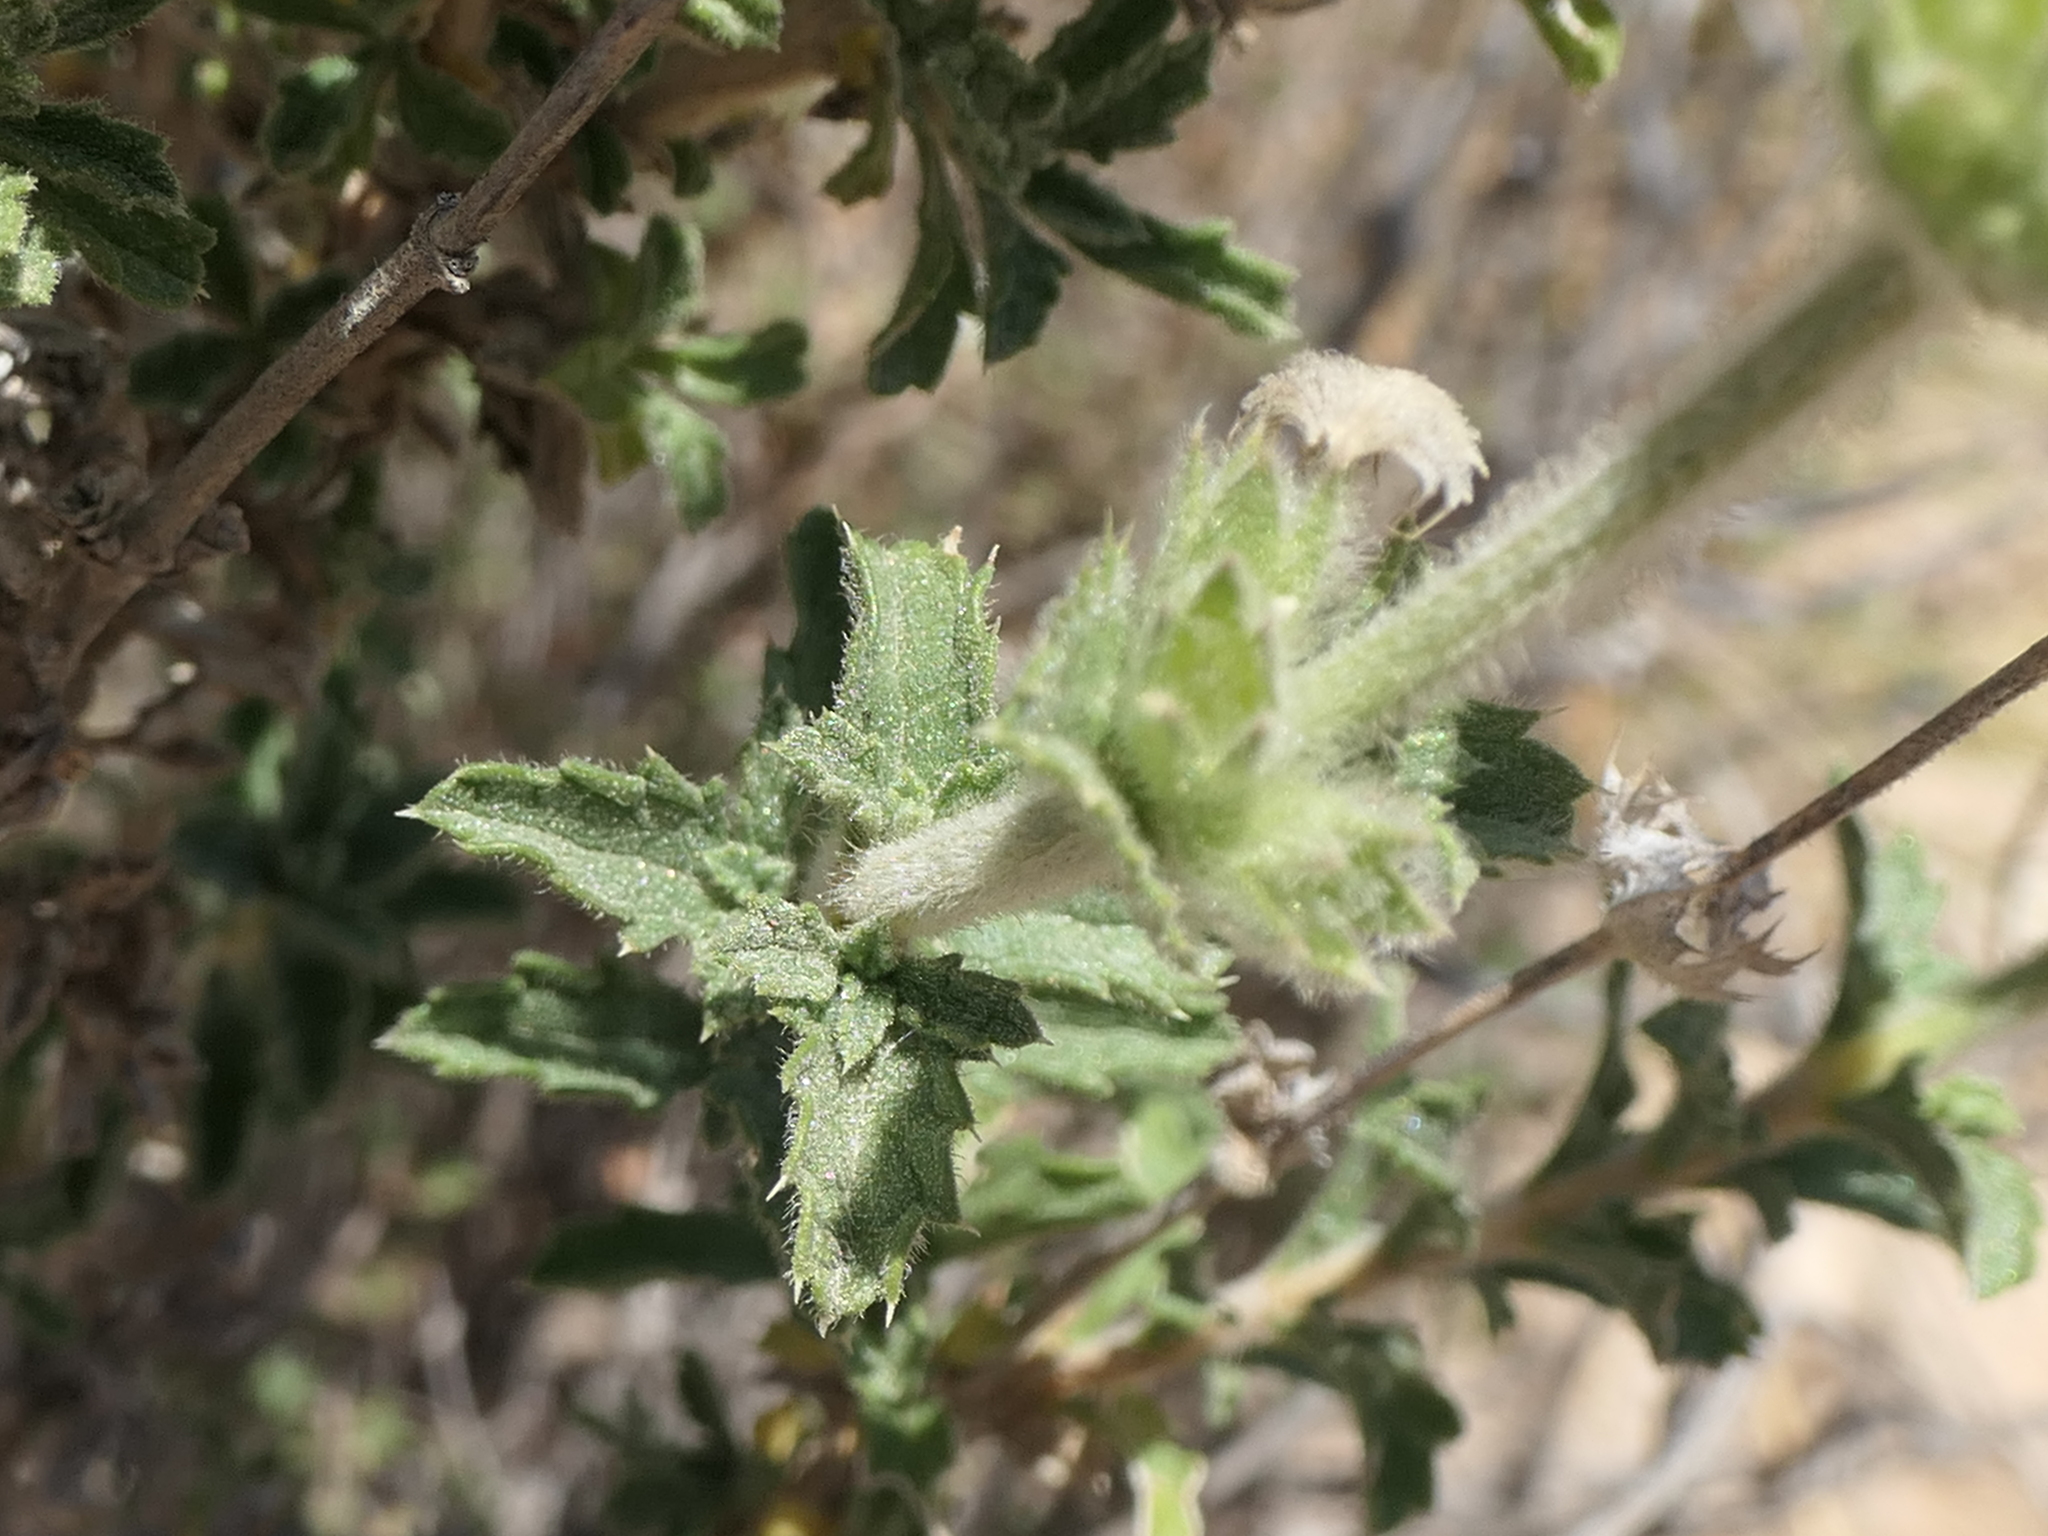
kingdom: Plantae
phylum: Tracheophyta
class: Magnoliopsida
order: Lamiales
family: Lamiaceae
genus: Sideritis
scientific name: Sideritis hirsuta
